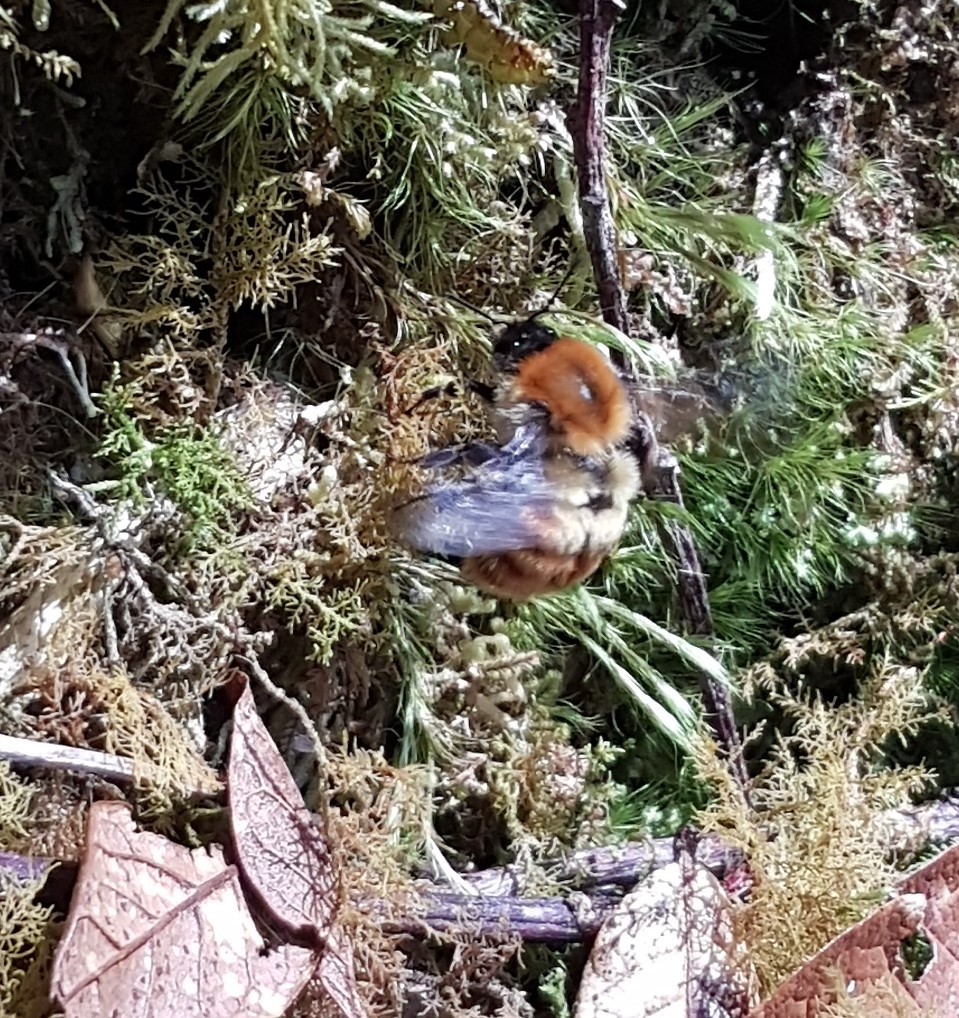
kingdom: Animalia
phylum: Arthropoda
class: Insecta
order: Hymenoptera
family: Apidae
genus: Bombus
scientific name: Bombus ephippiatus
